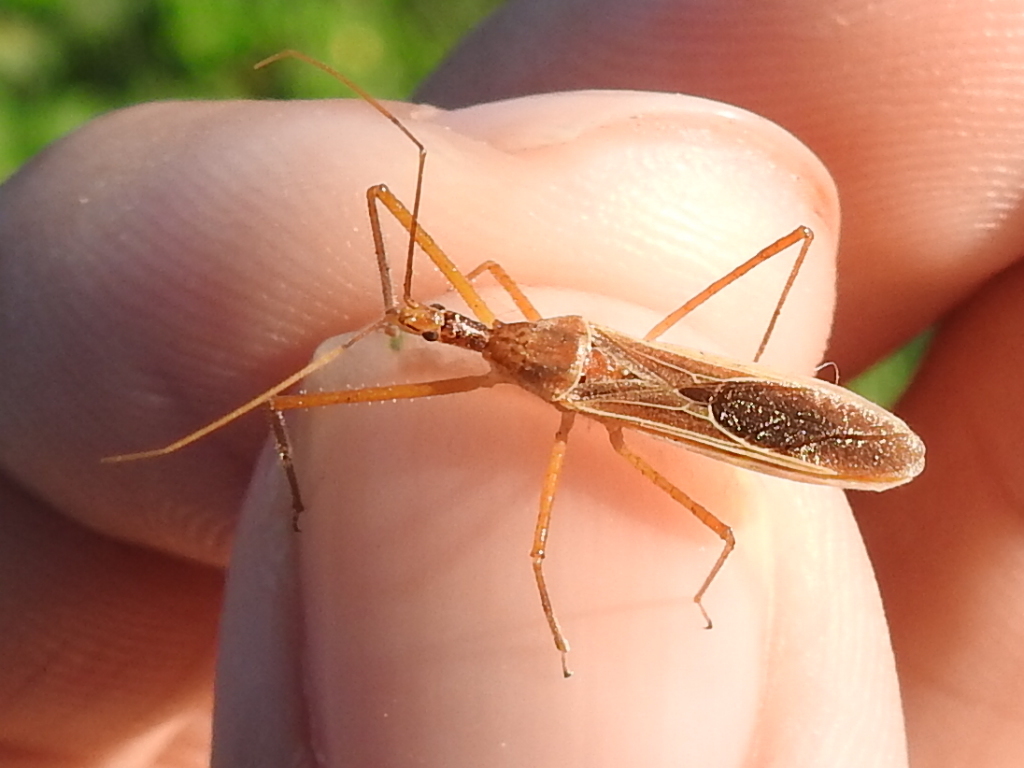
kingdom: Animalia
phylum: Arthropoda
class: Insecta
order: Hemiptera
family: Reduviidae
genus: Zelus
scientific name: Zelus cervicalis
